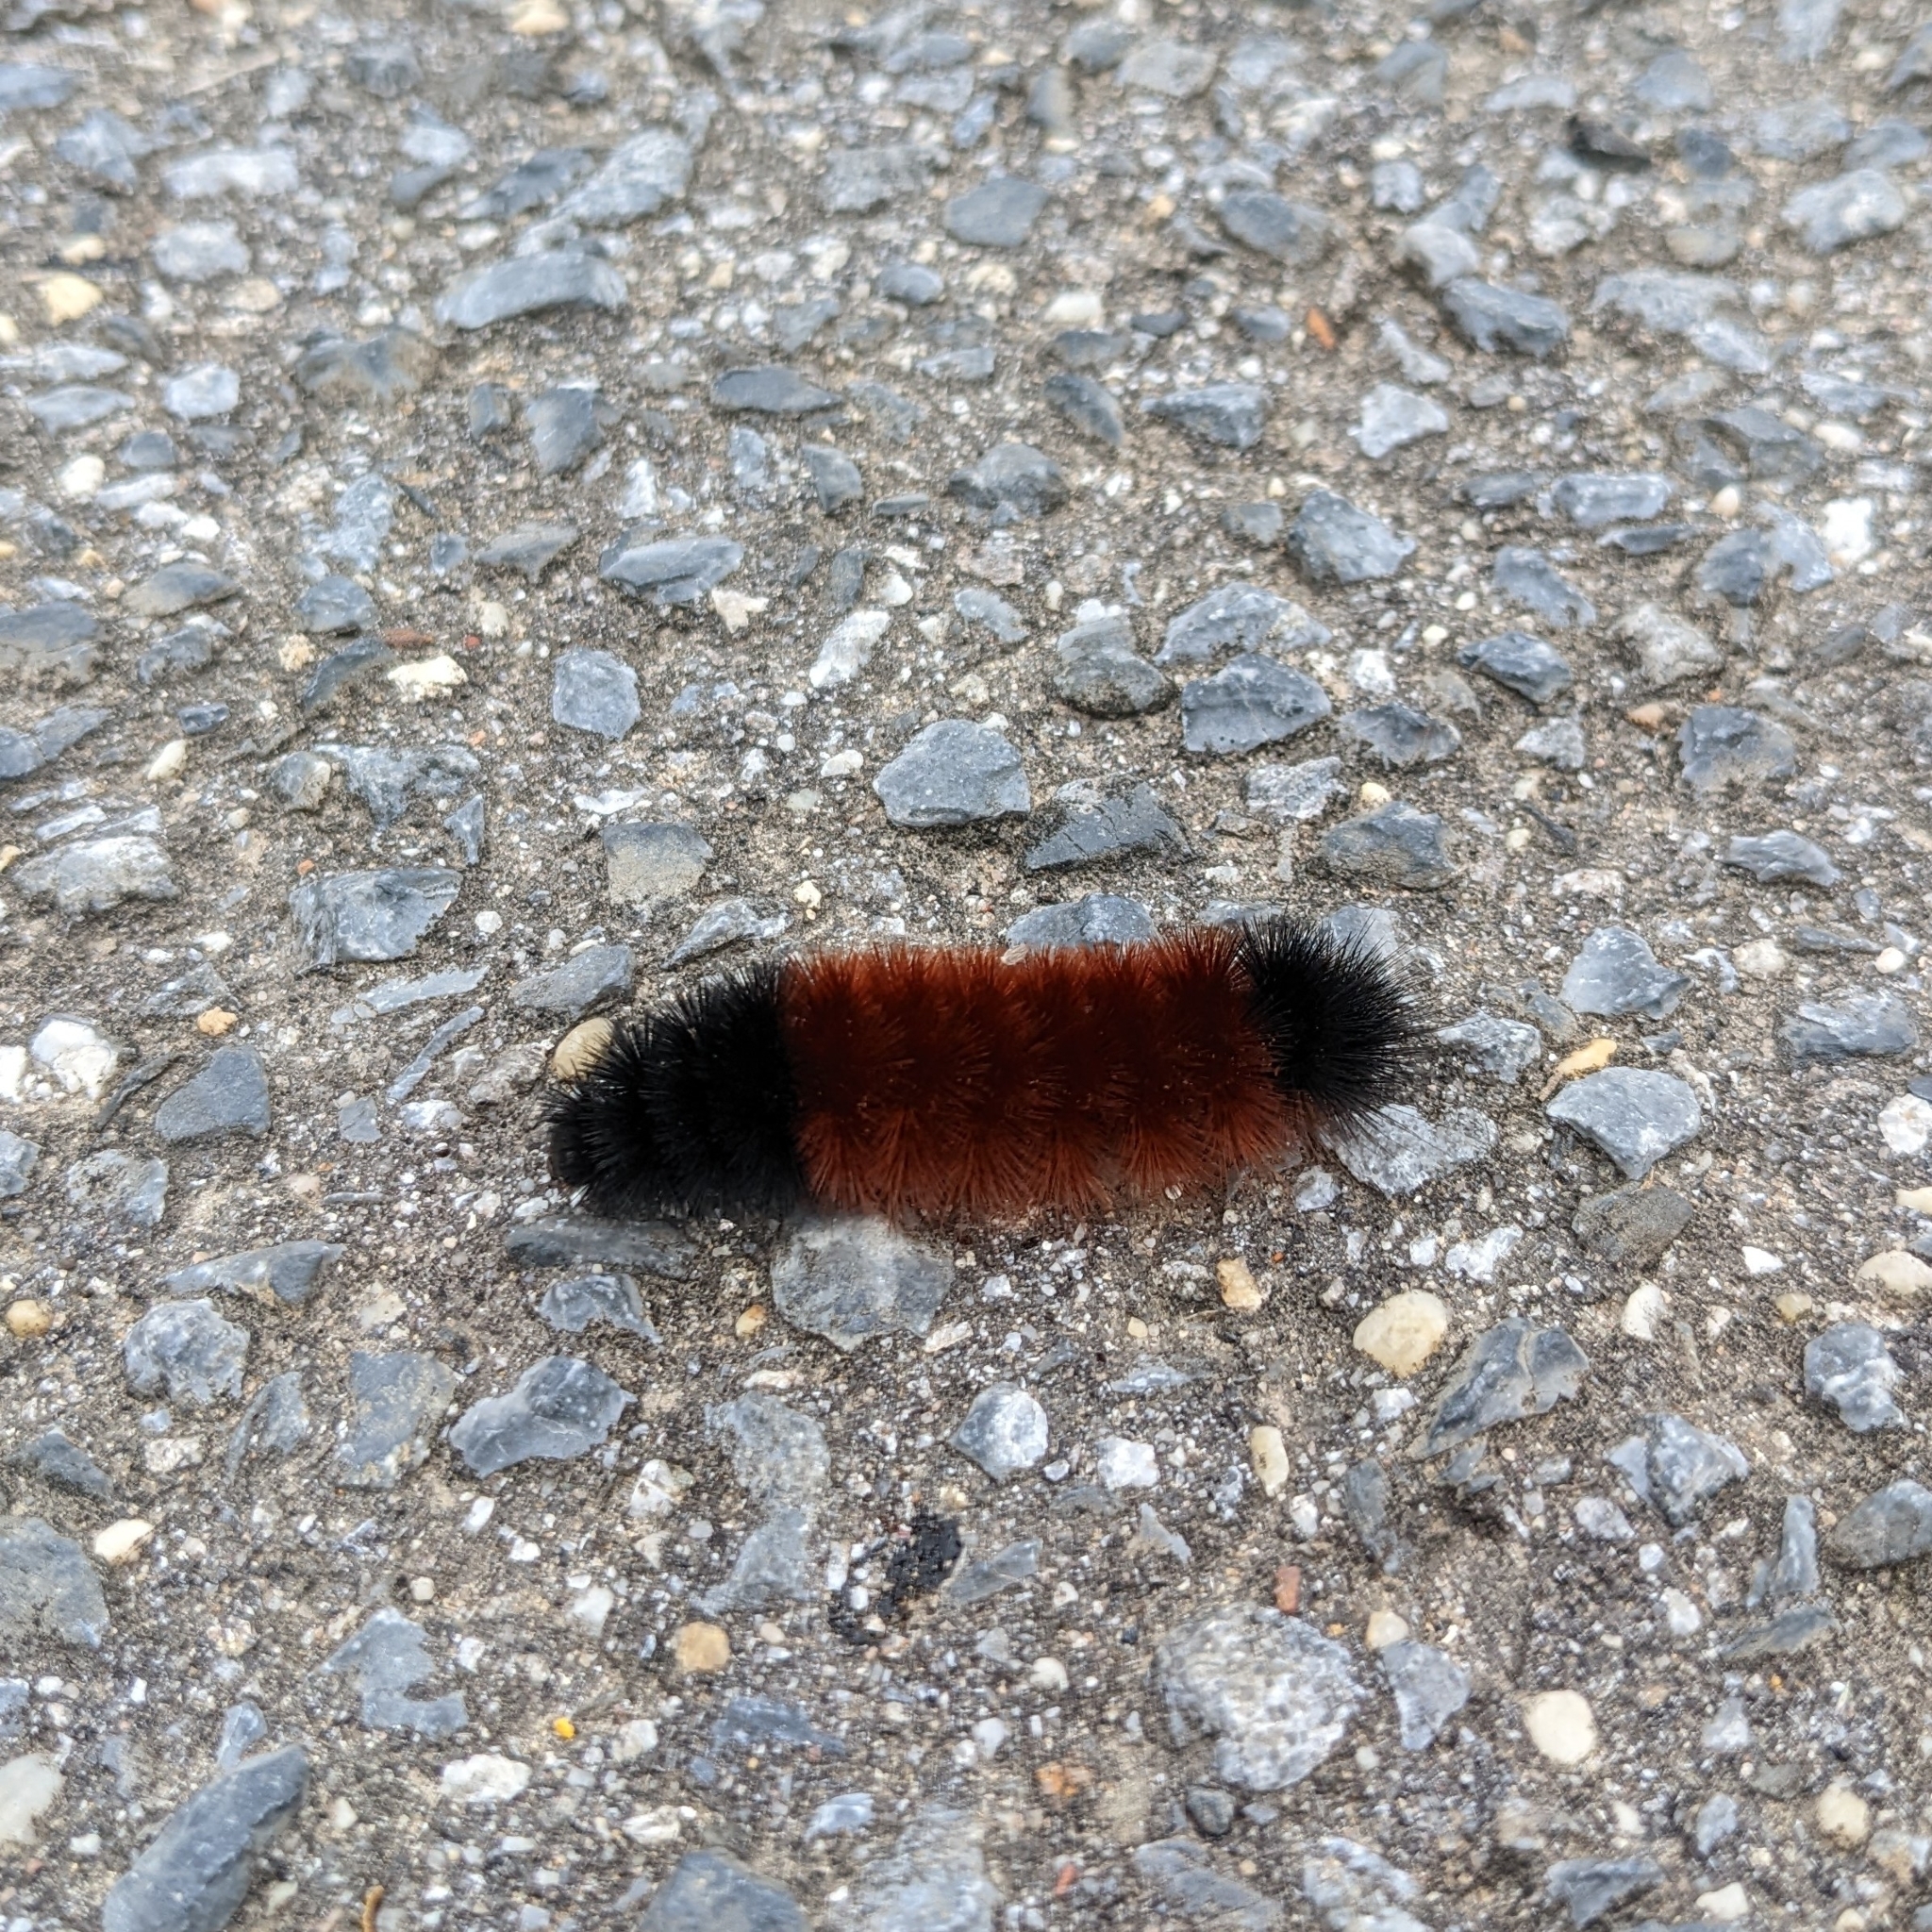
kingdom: Animalia
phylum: Arthropoda
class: Insecta
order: Lepidoptera
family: Erebidae
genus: Pyrrharctia
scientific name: Pyrrharctia isabella
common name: Isabella tiger moth
